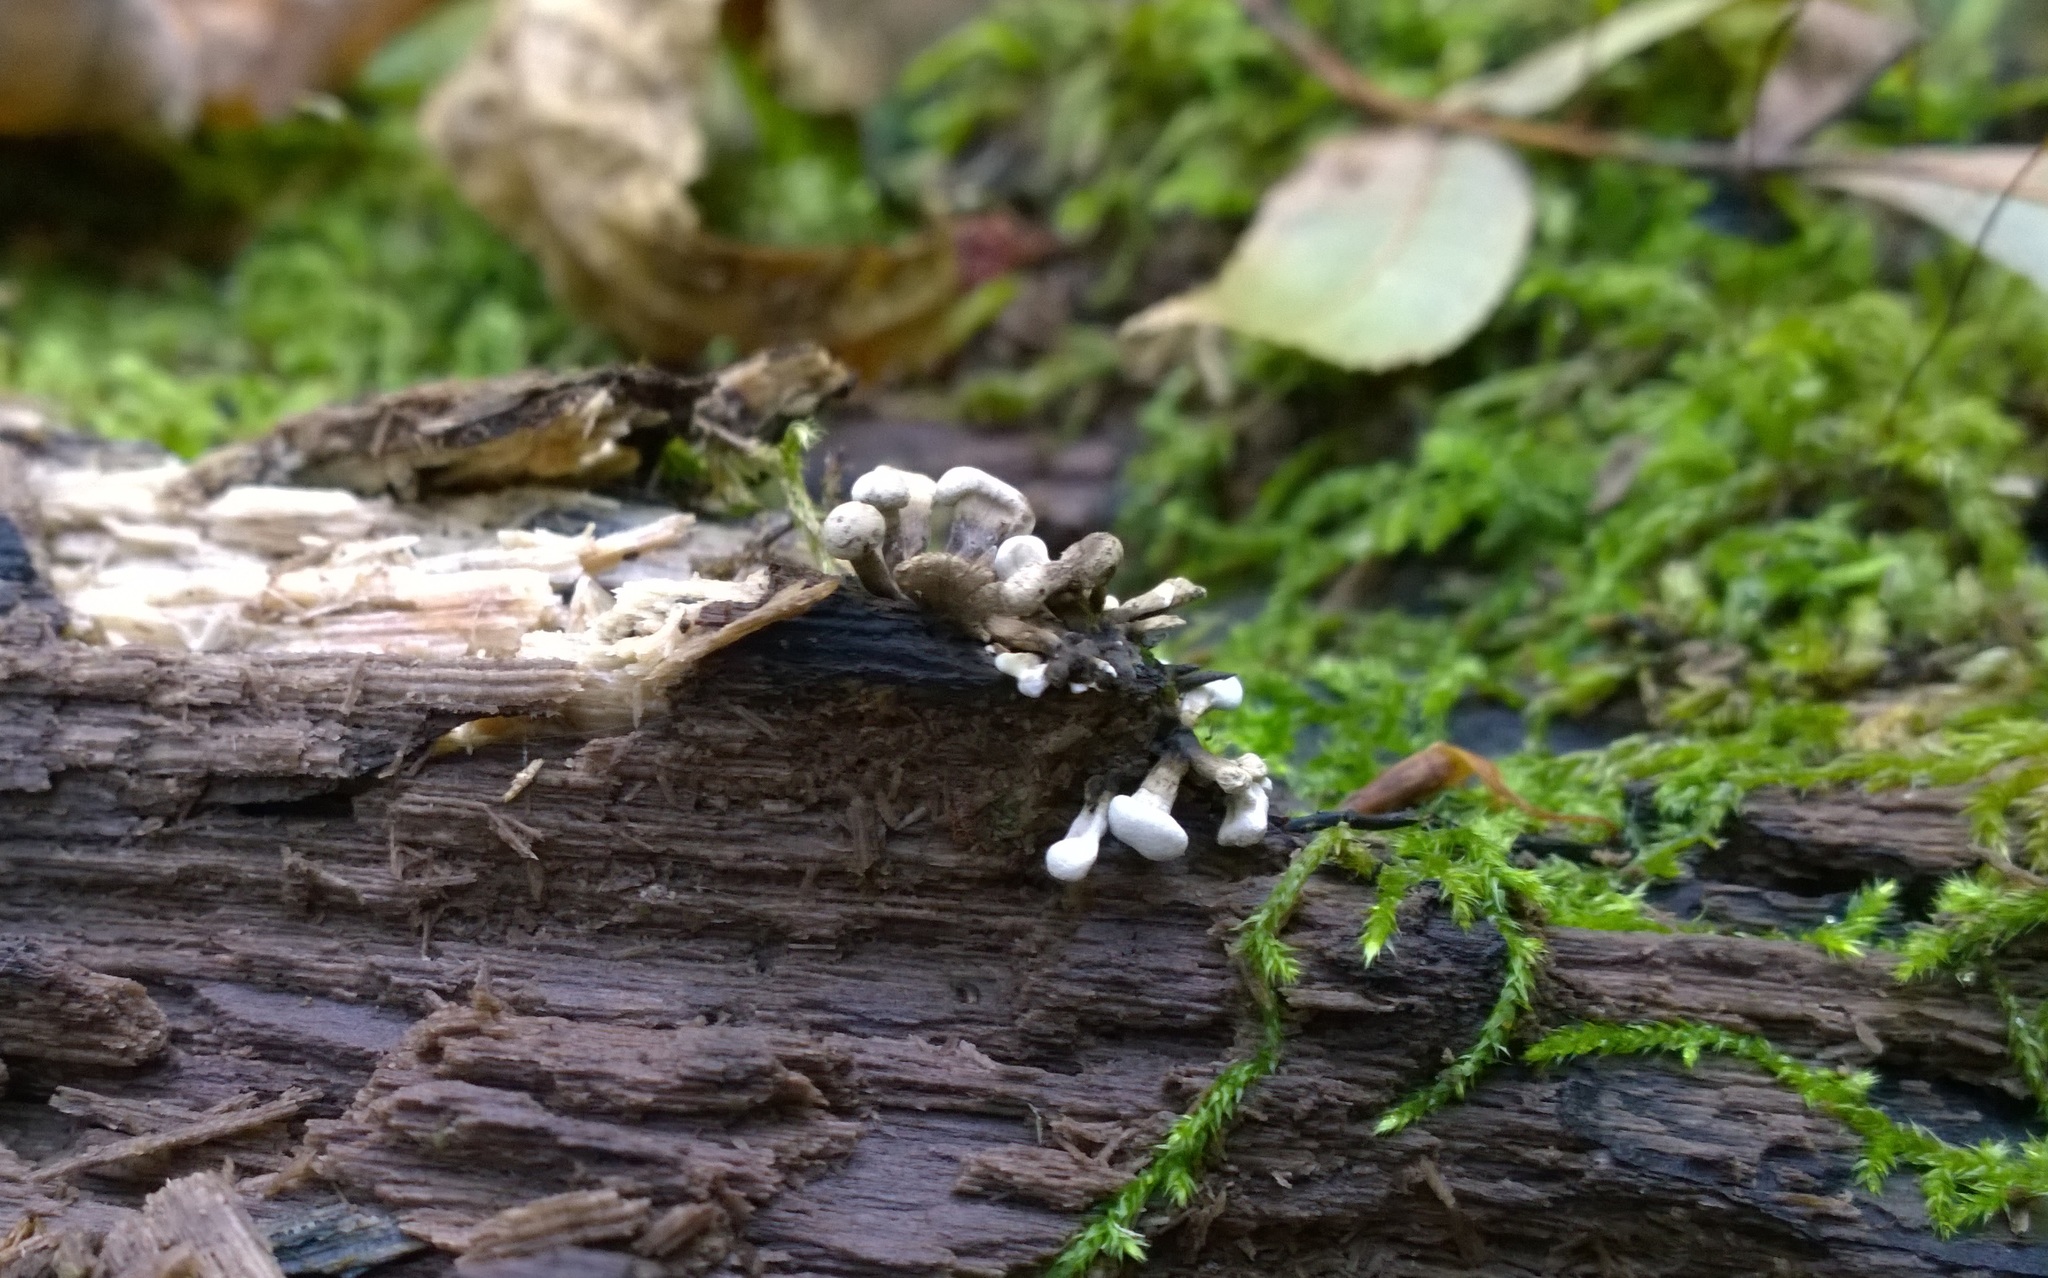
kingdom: Fungi
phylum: Basidiomycota
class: Atractiellomycetes
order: Atractiellales
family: Phleogenaceae
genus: Phleogena
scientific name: Phleogena faginea
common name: Fenugreek stalkball
